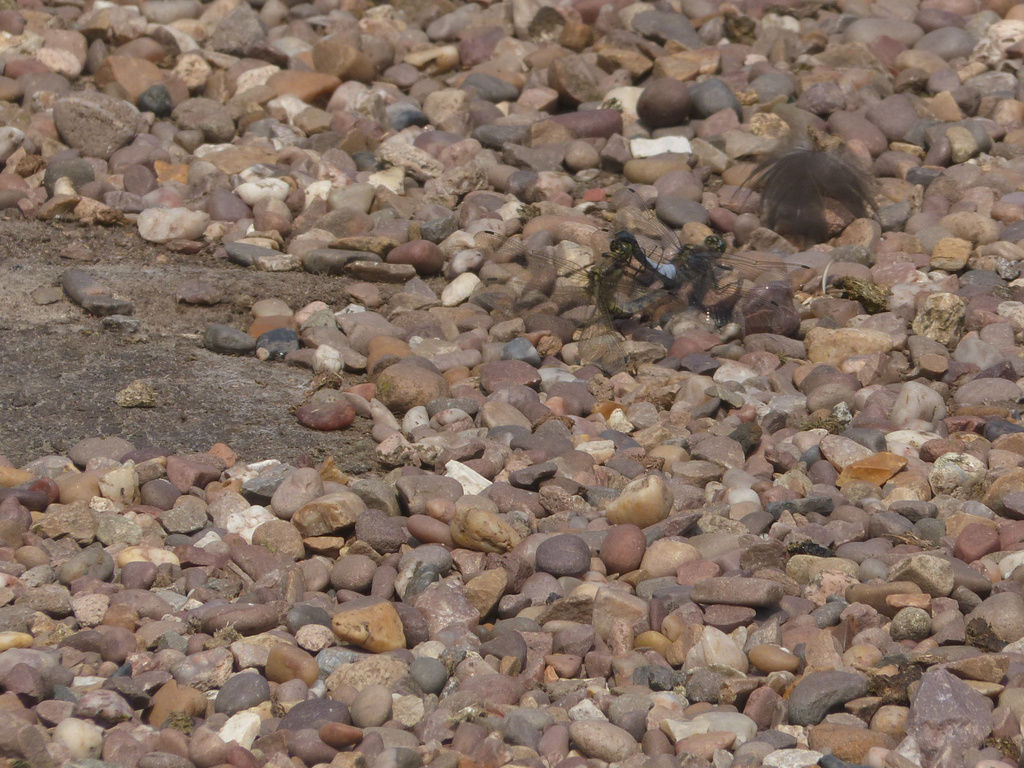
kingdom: Animalia
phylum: Arthropoda
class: Insecta
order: Odonata
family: Libellulidae
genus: Orthetrum
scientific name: Orthetrum cancellatum
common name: Black-tailed skimmer
